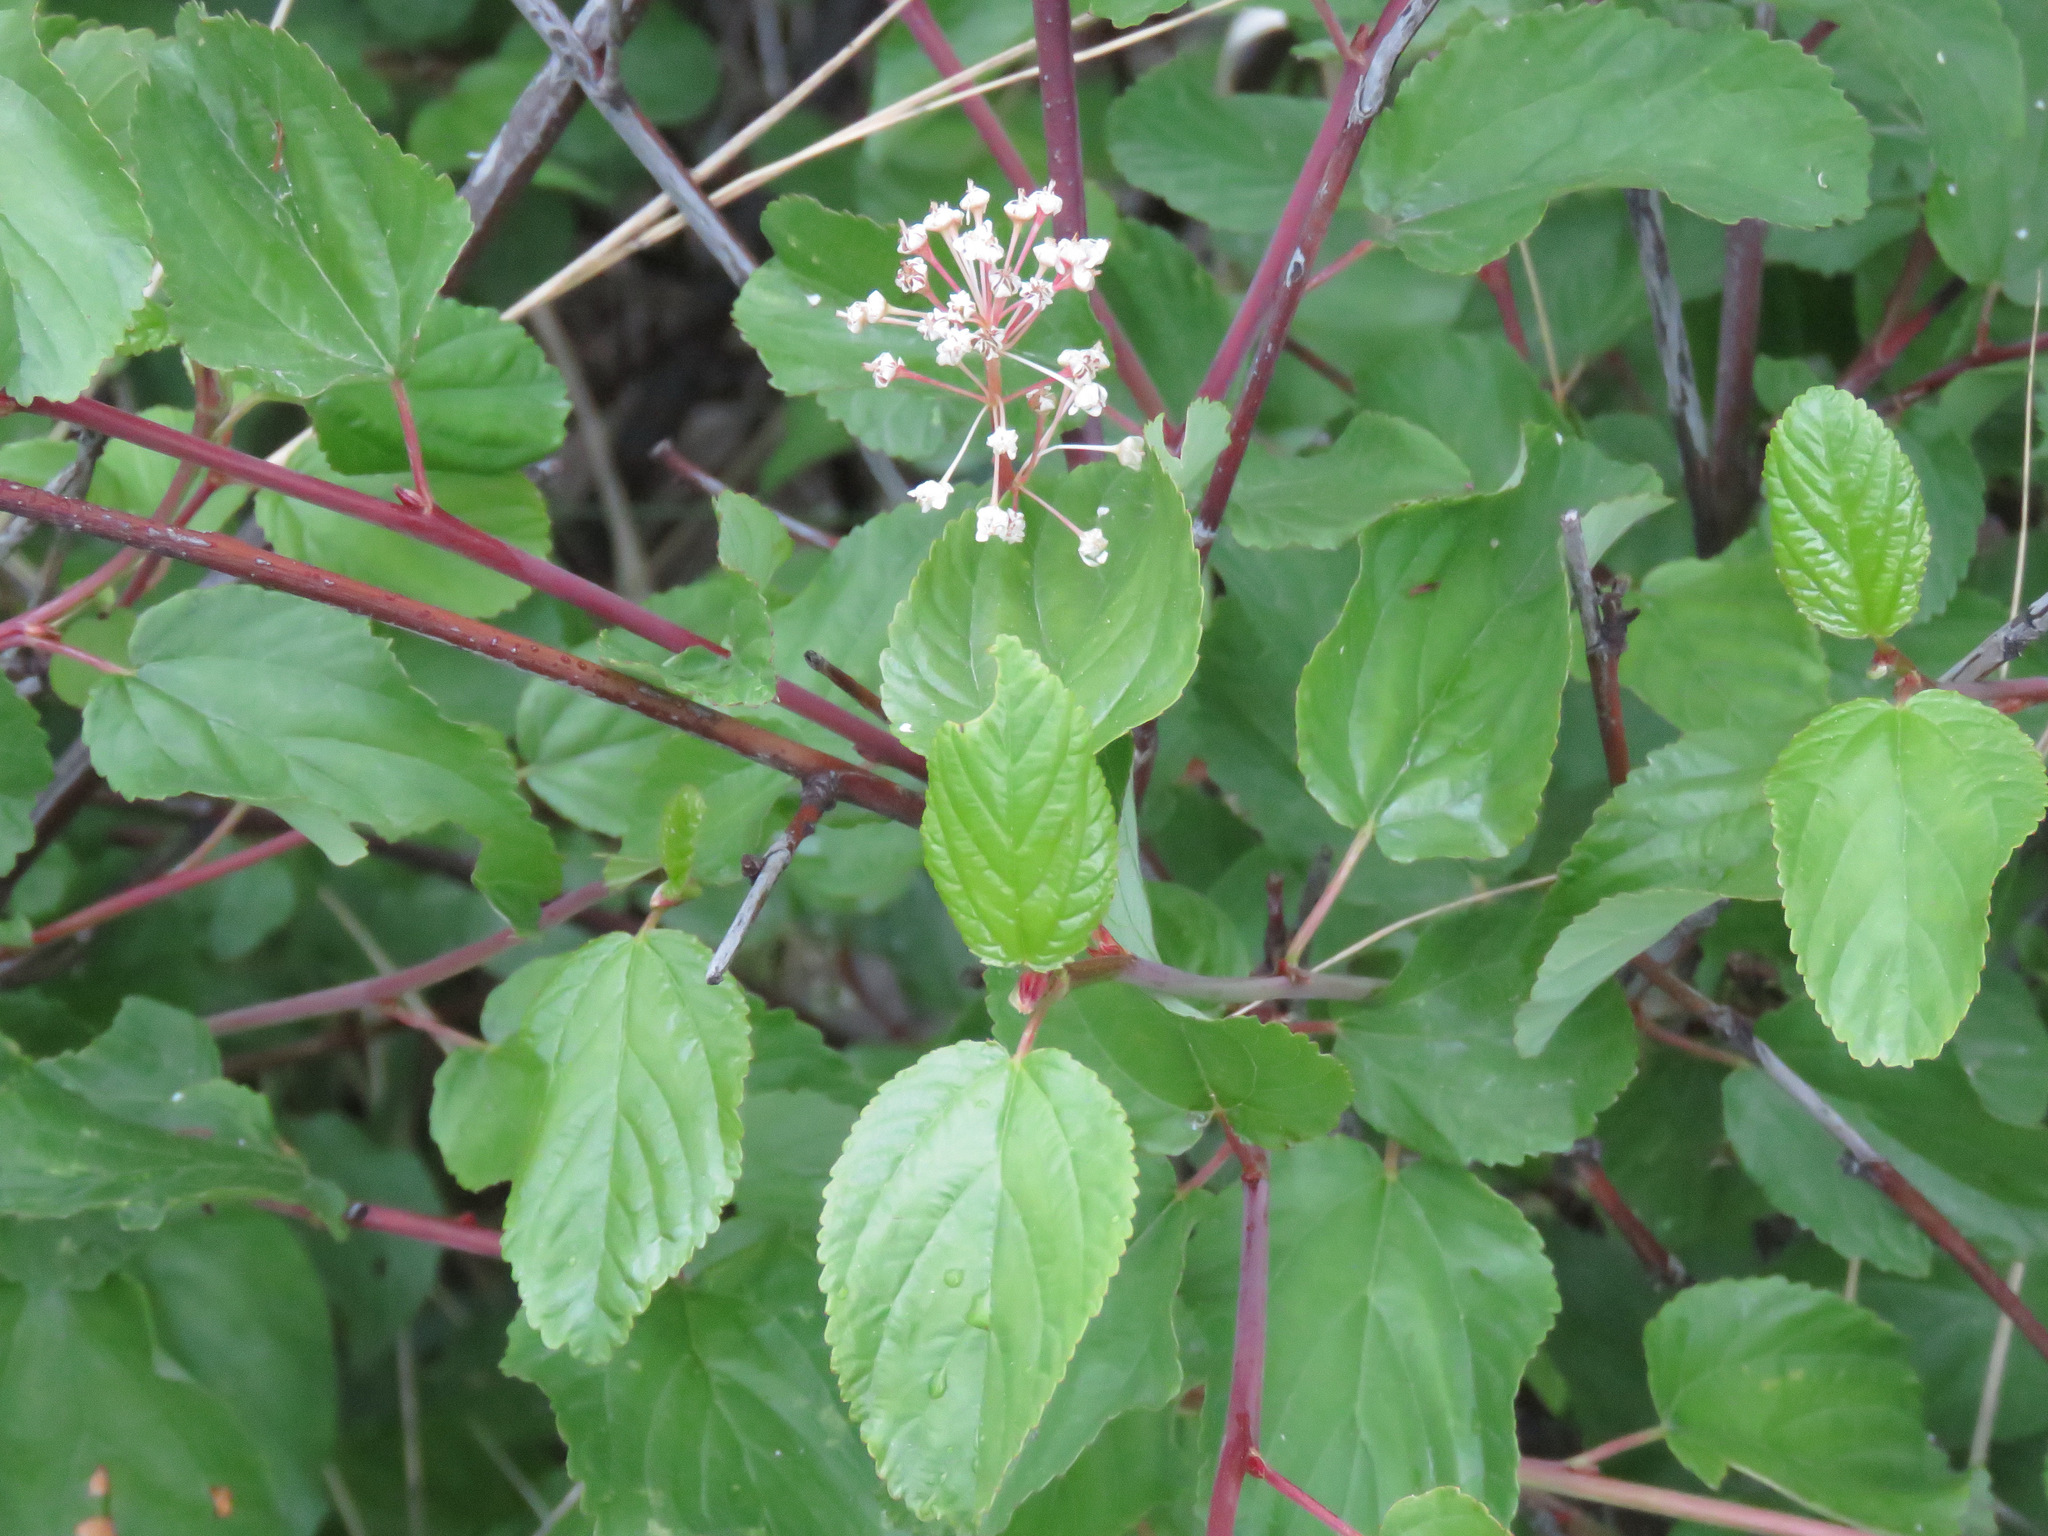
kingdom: Plantae
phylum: Tracheophyta
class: Magnoliopsida
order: Rosales
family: Rhamnaceae
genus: Ceanothus
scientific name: Ceanothus sanguineus
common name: Teatree
